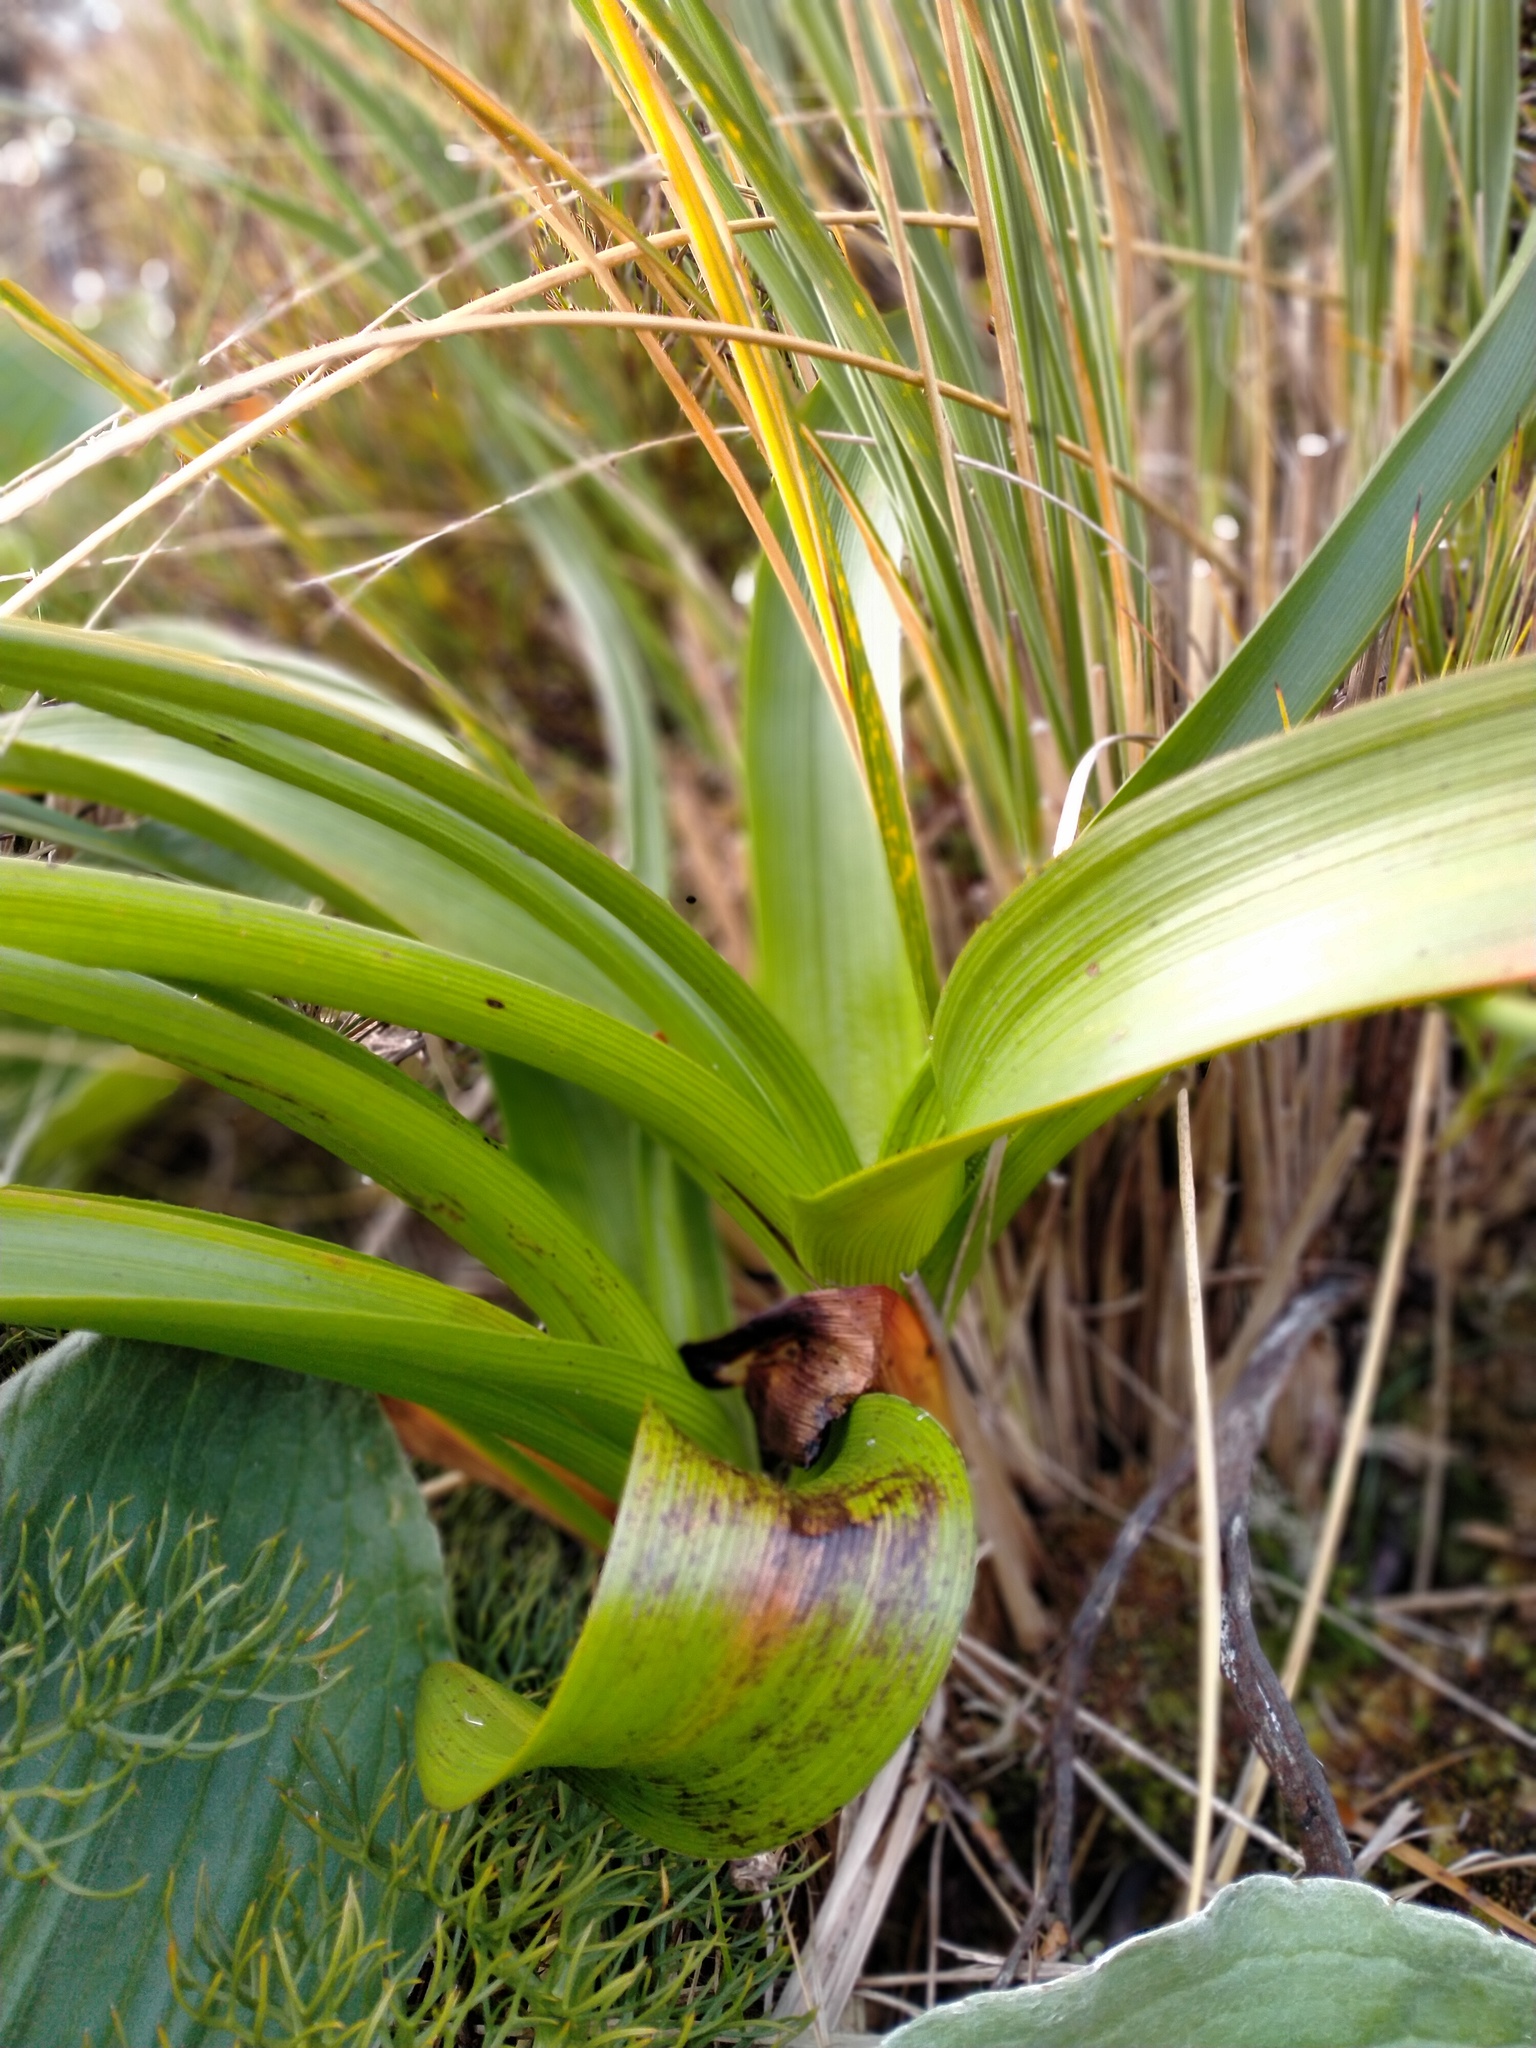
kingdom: Plantae
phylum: Tracheophyta
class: Liliopsida
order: Asparagales
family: Asphodelaceae
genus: Bulbinella
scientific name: Bulbinella rossii
